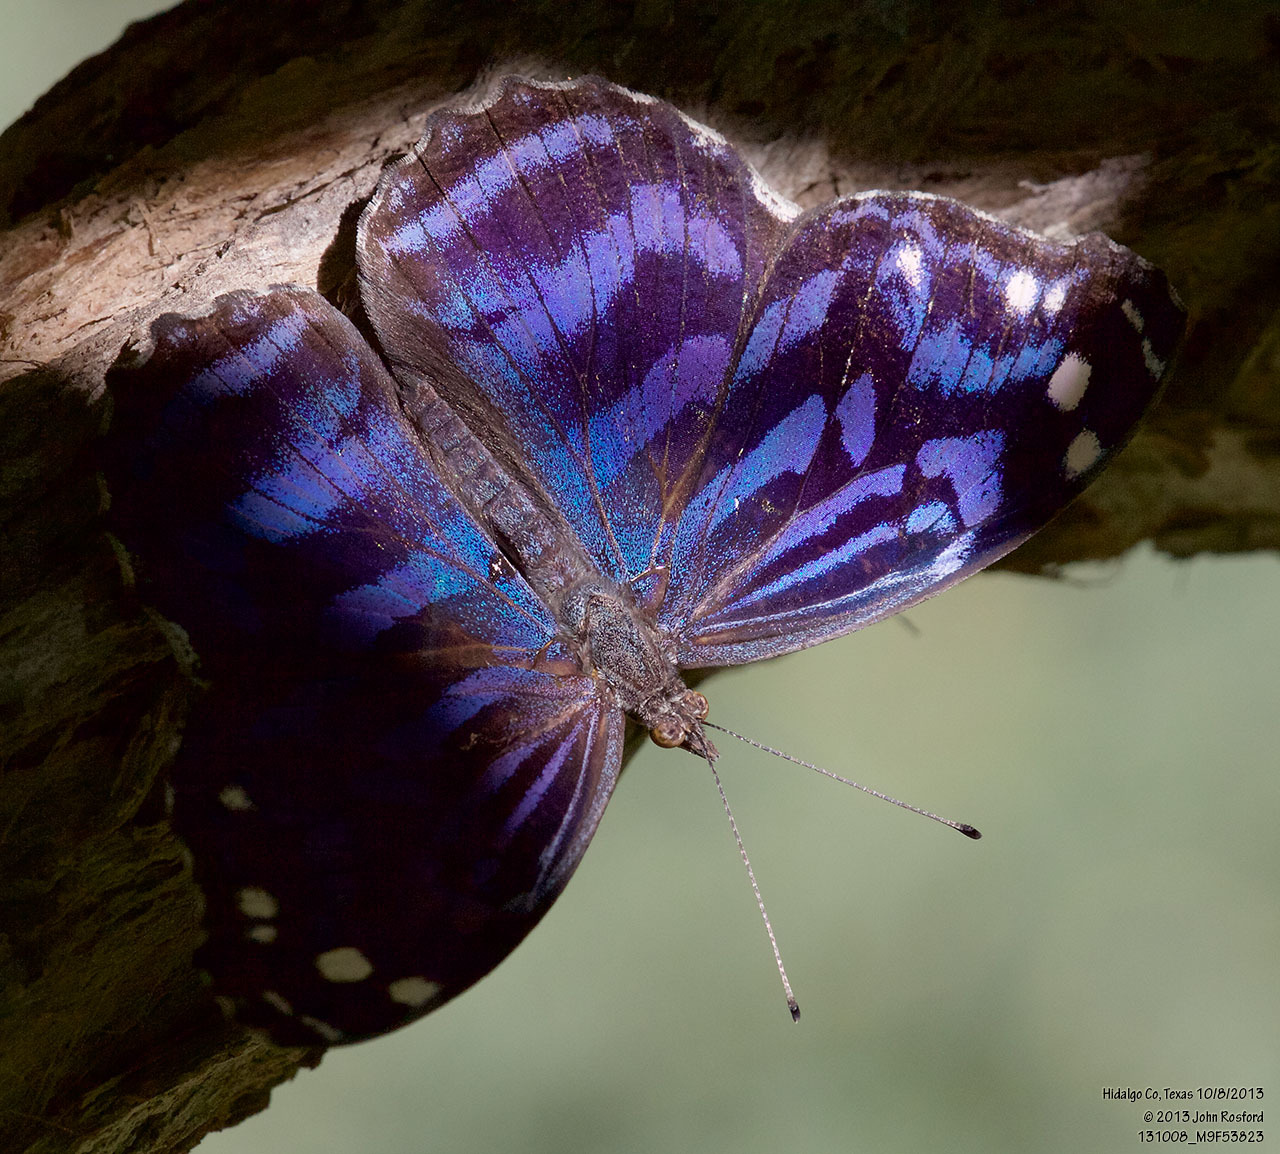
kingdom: Animalia
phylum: Arthropoda
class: Insecta
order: Lepidoptera
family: Nymphalidae
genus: Myscelia
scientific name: Myscelia ethusa
